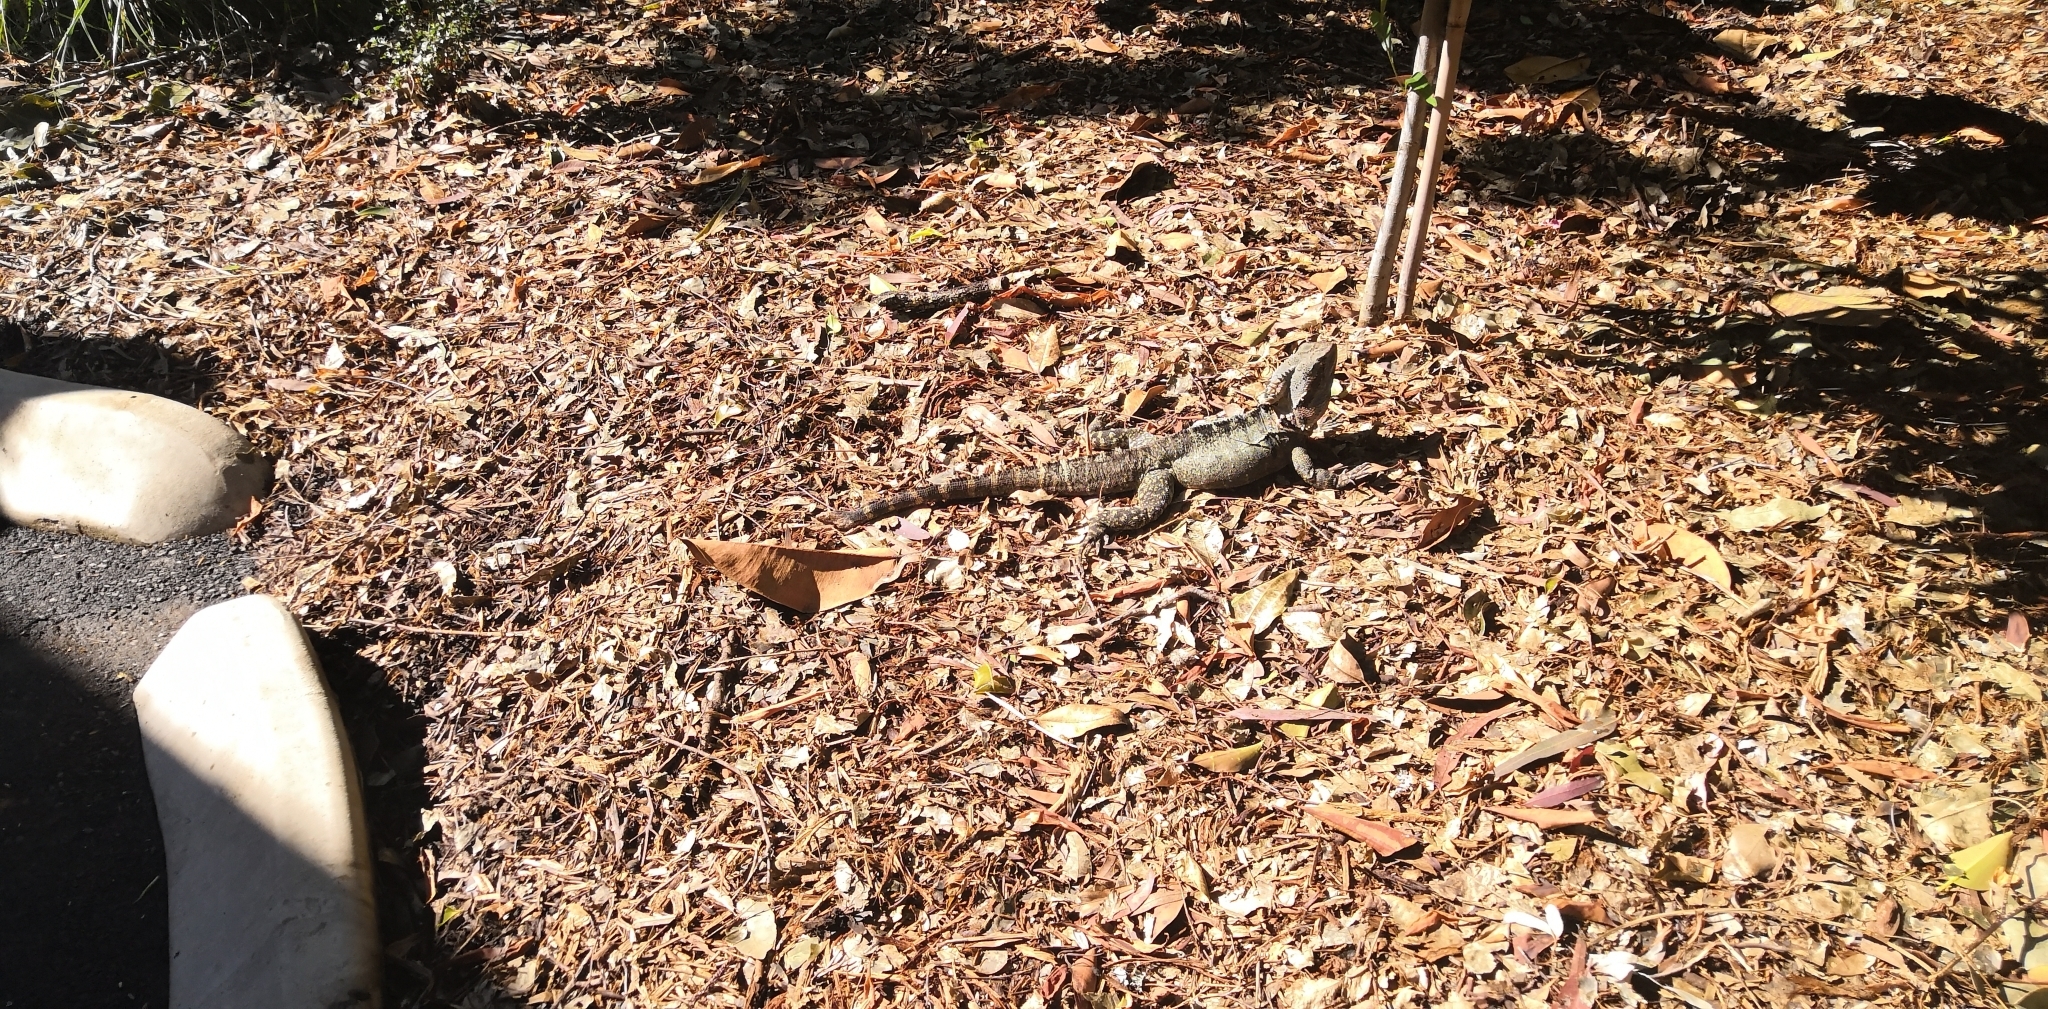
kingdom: Animalia
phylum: Chordata
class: Squamata
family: Agamidae
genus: Intellagama
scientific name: Intellagama lesueurii
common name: Eastern water dragon
